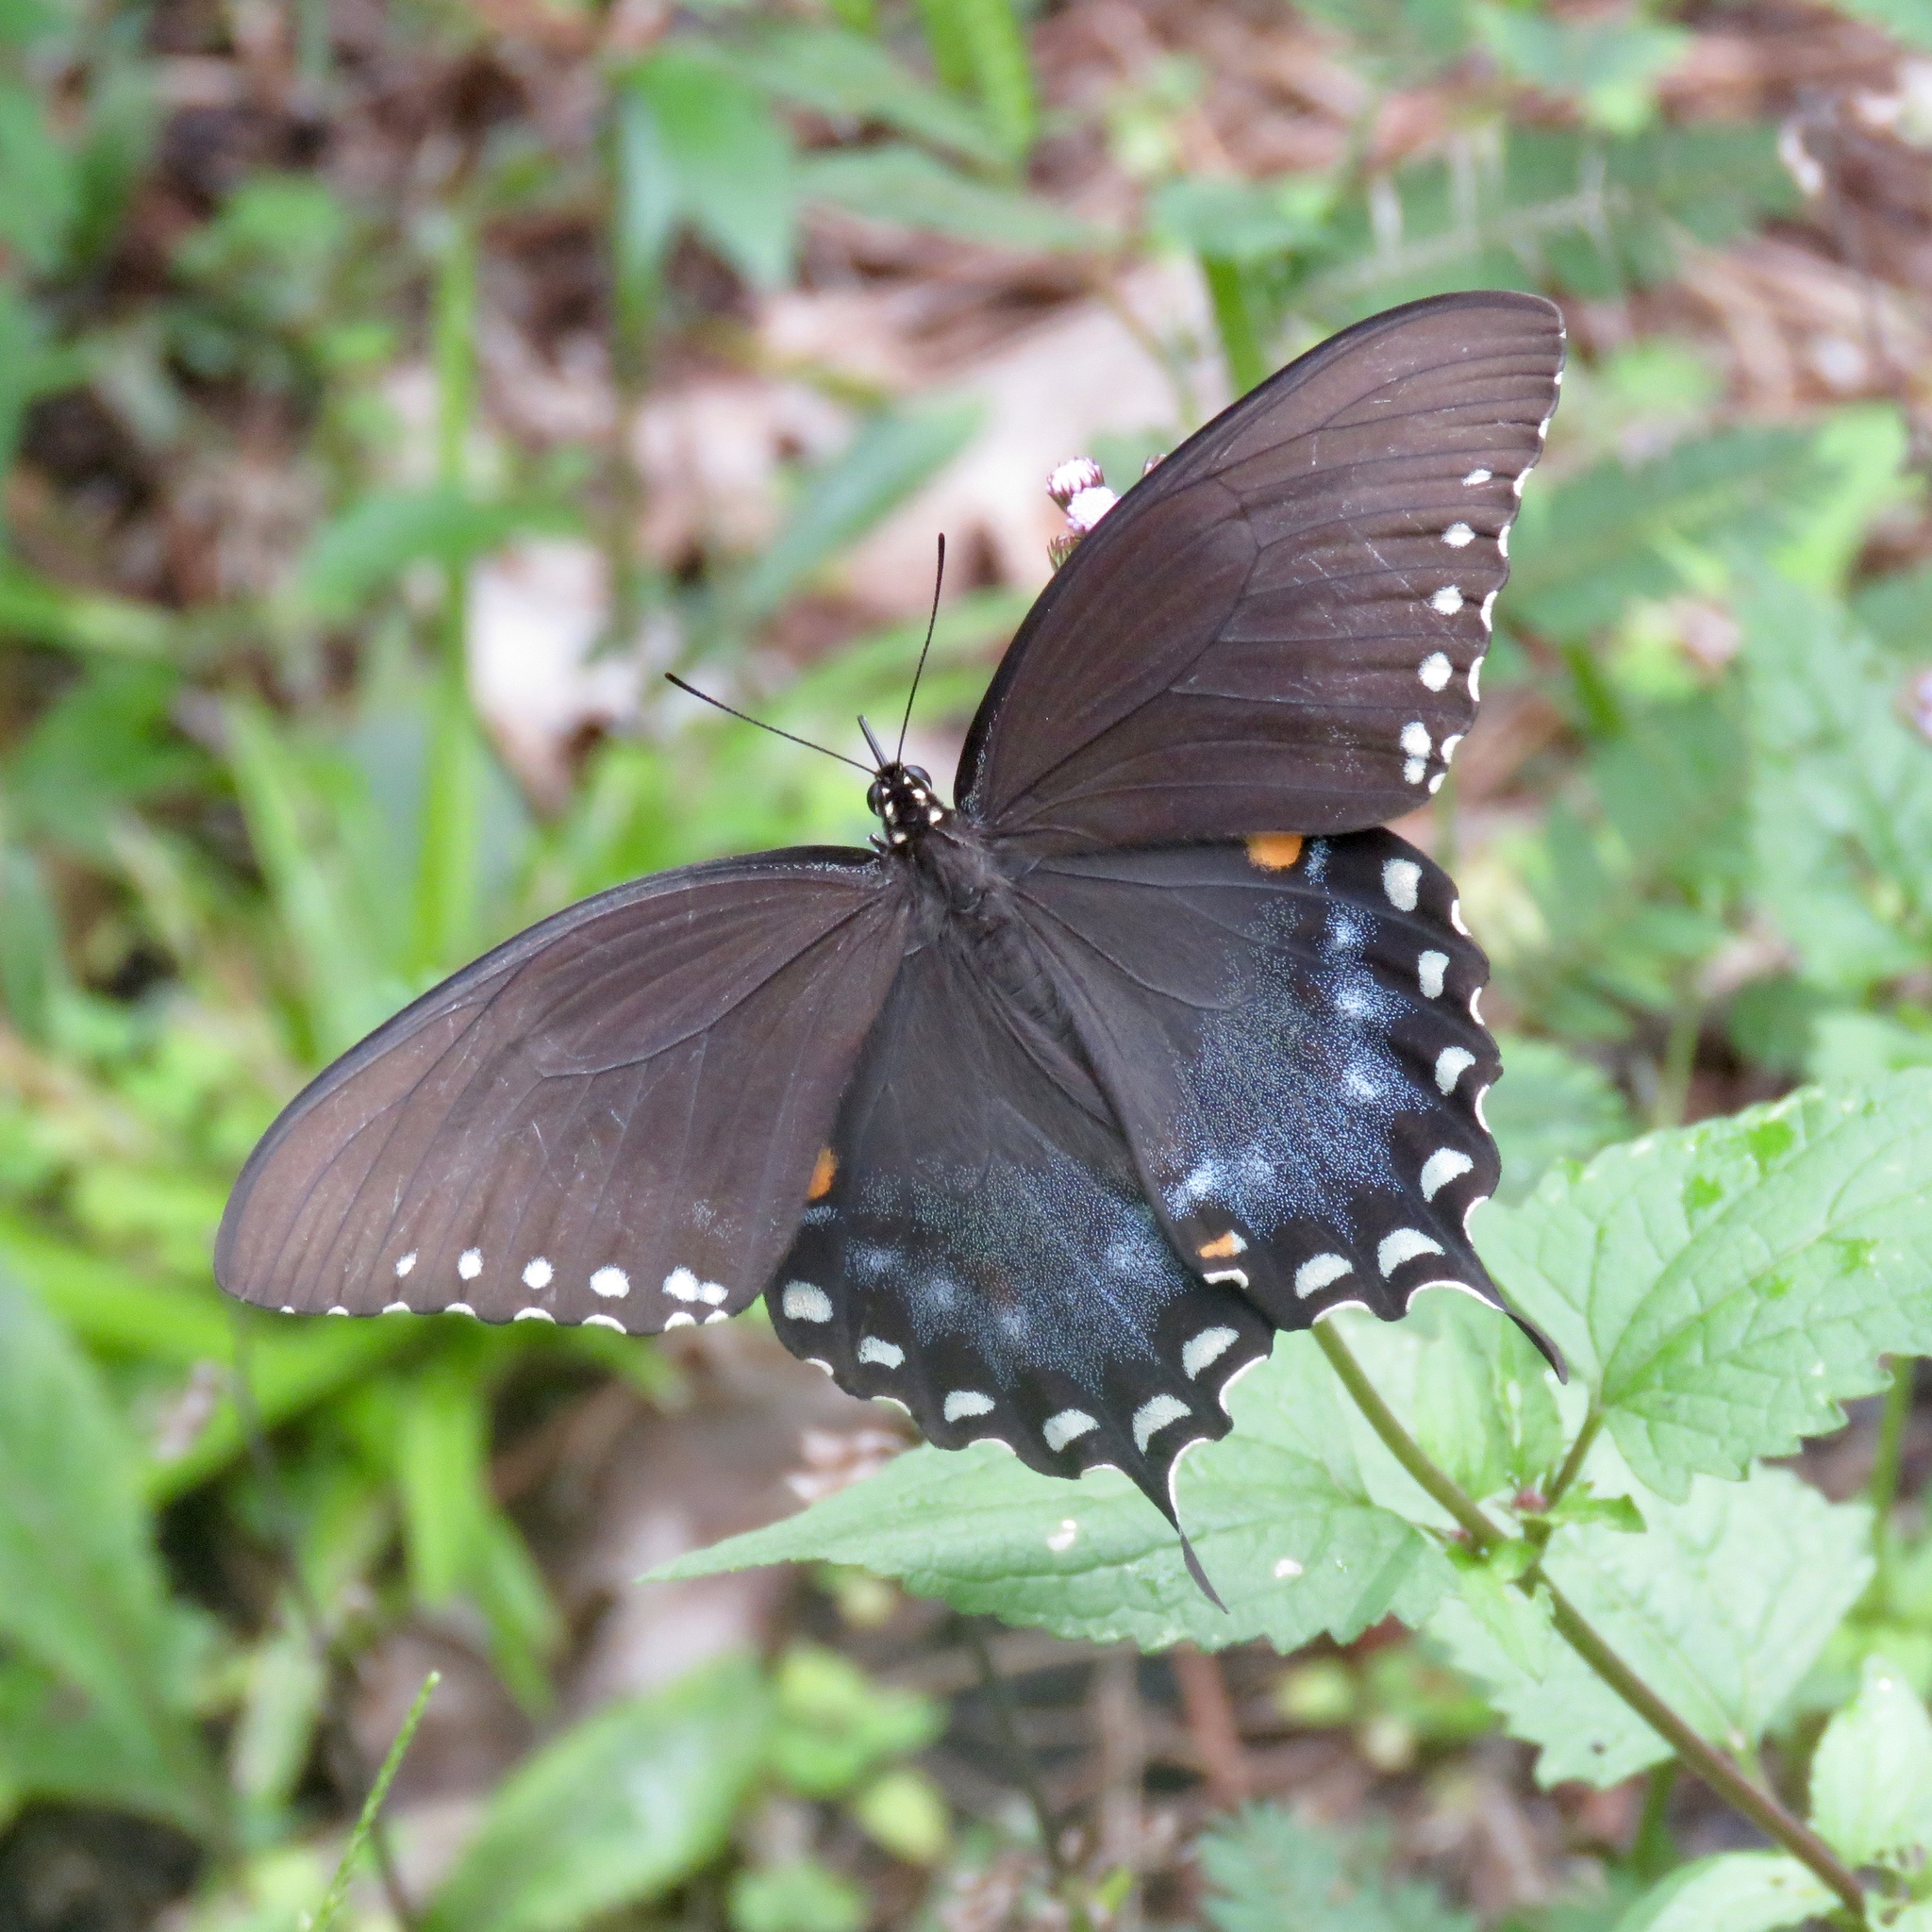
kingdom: Animalia
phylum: Arthropoda
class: Insecta
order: Lepidoptera
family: Papilionidae
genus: Papilio
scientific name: Papilio troilus
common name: Spicebush swallowtail
